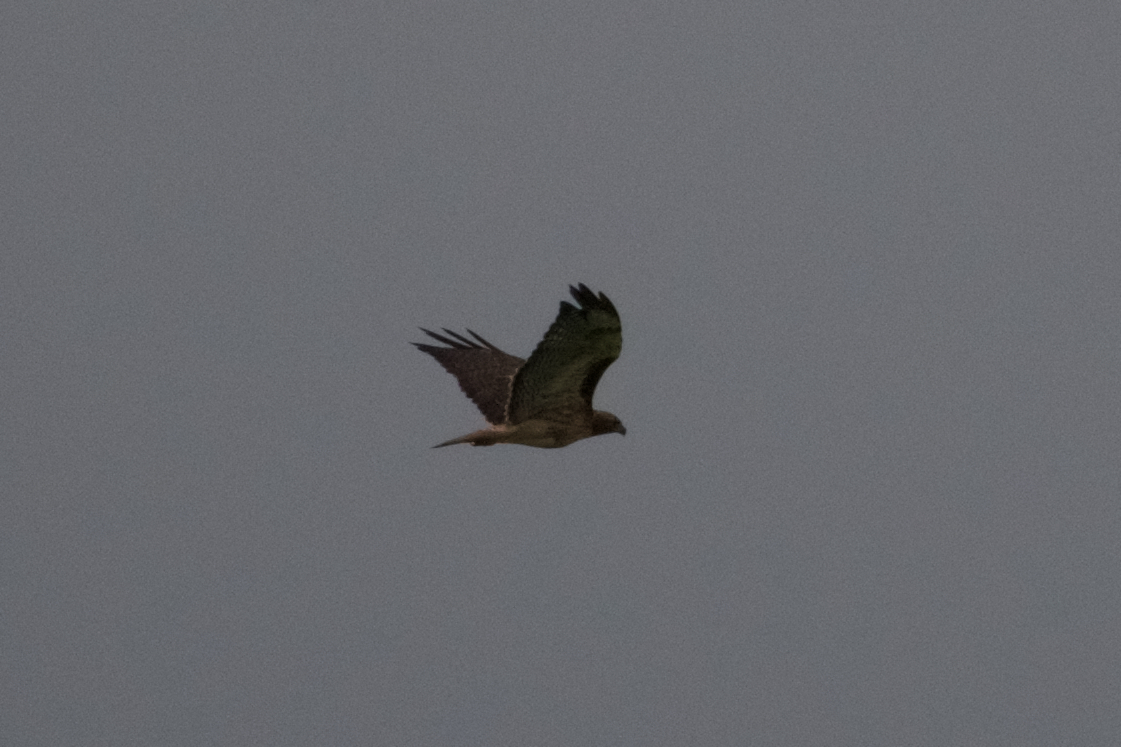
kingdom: Animalia
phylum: Chordata
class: Aves
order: Accipitriformes
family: Accipitridae
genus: Buteo
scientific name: Buteo jamaicensis
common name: Red-tailed hawk
